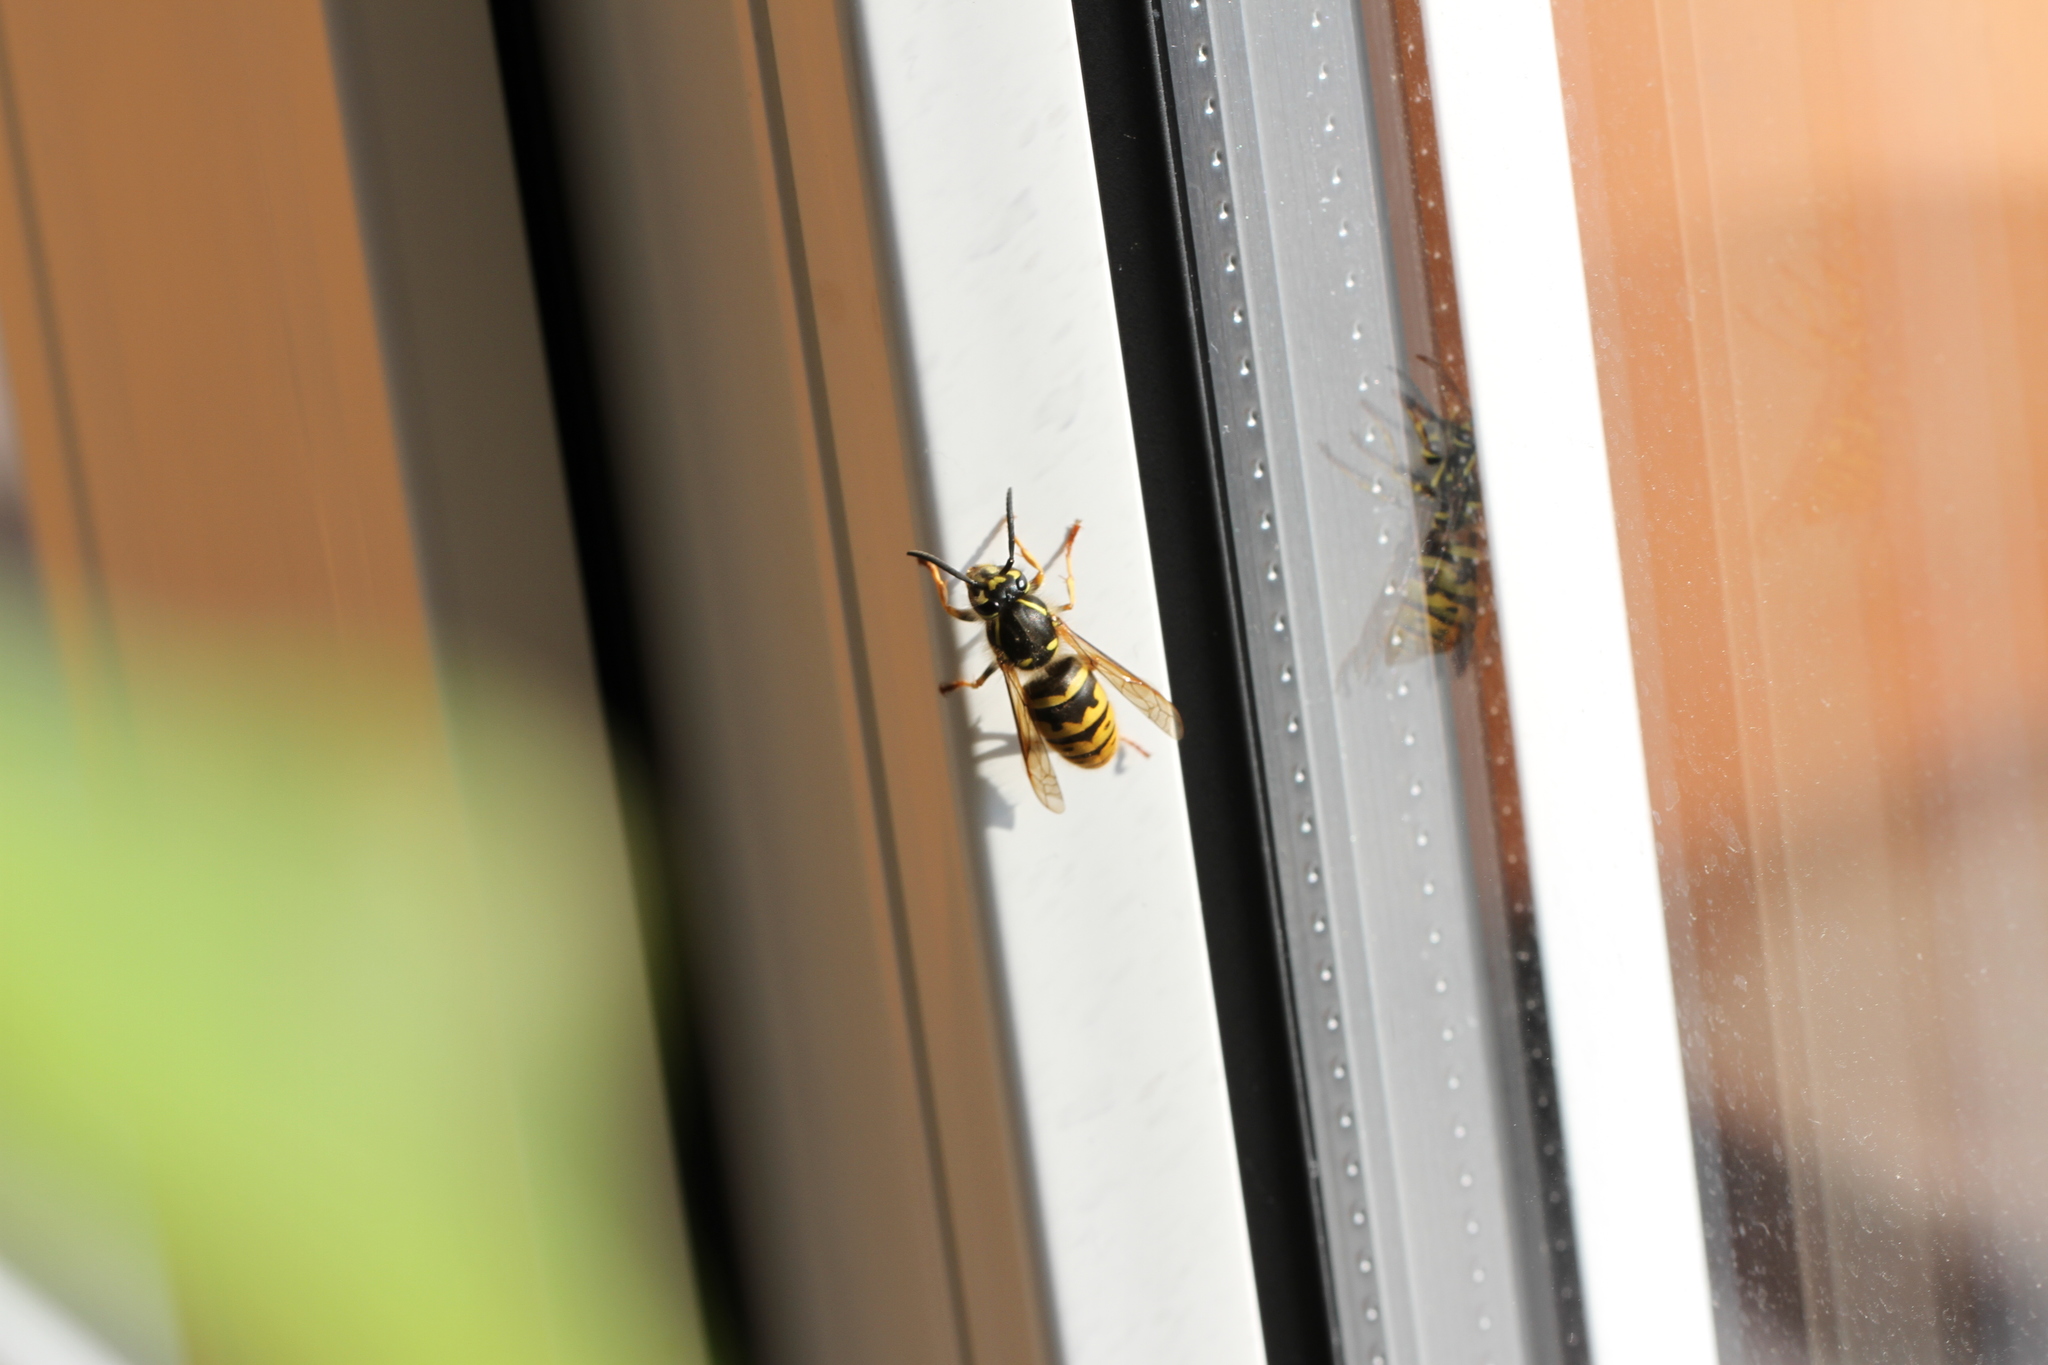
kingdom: Animalia
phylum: Arthropoda
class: Insecta
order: Hymenoptera
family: Vespidae
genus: Vespula
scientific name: Vespula vulgaris
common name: Common wasp
